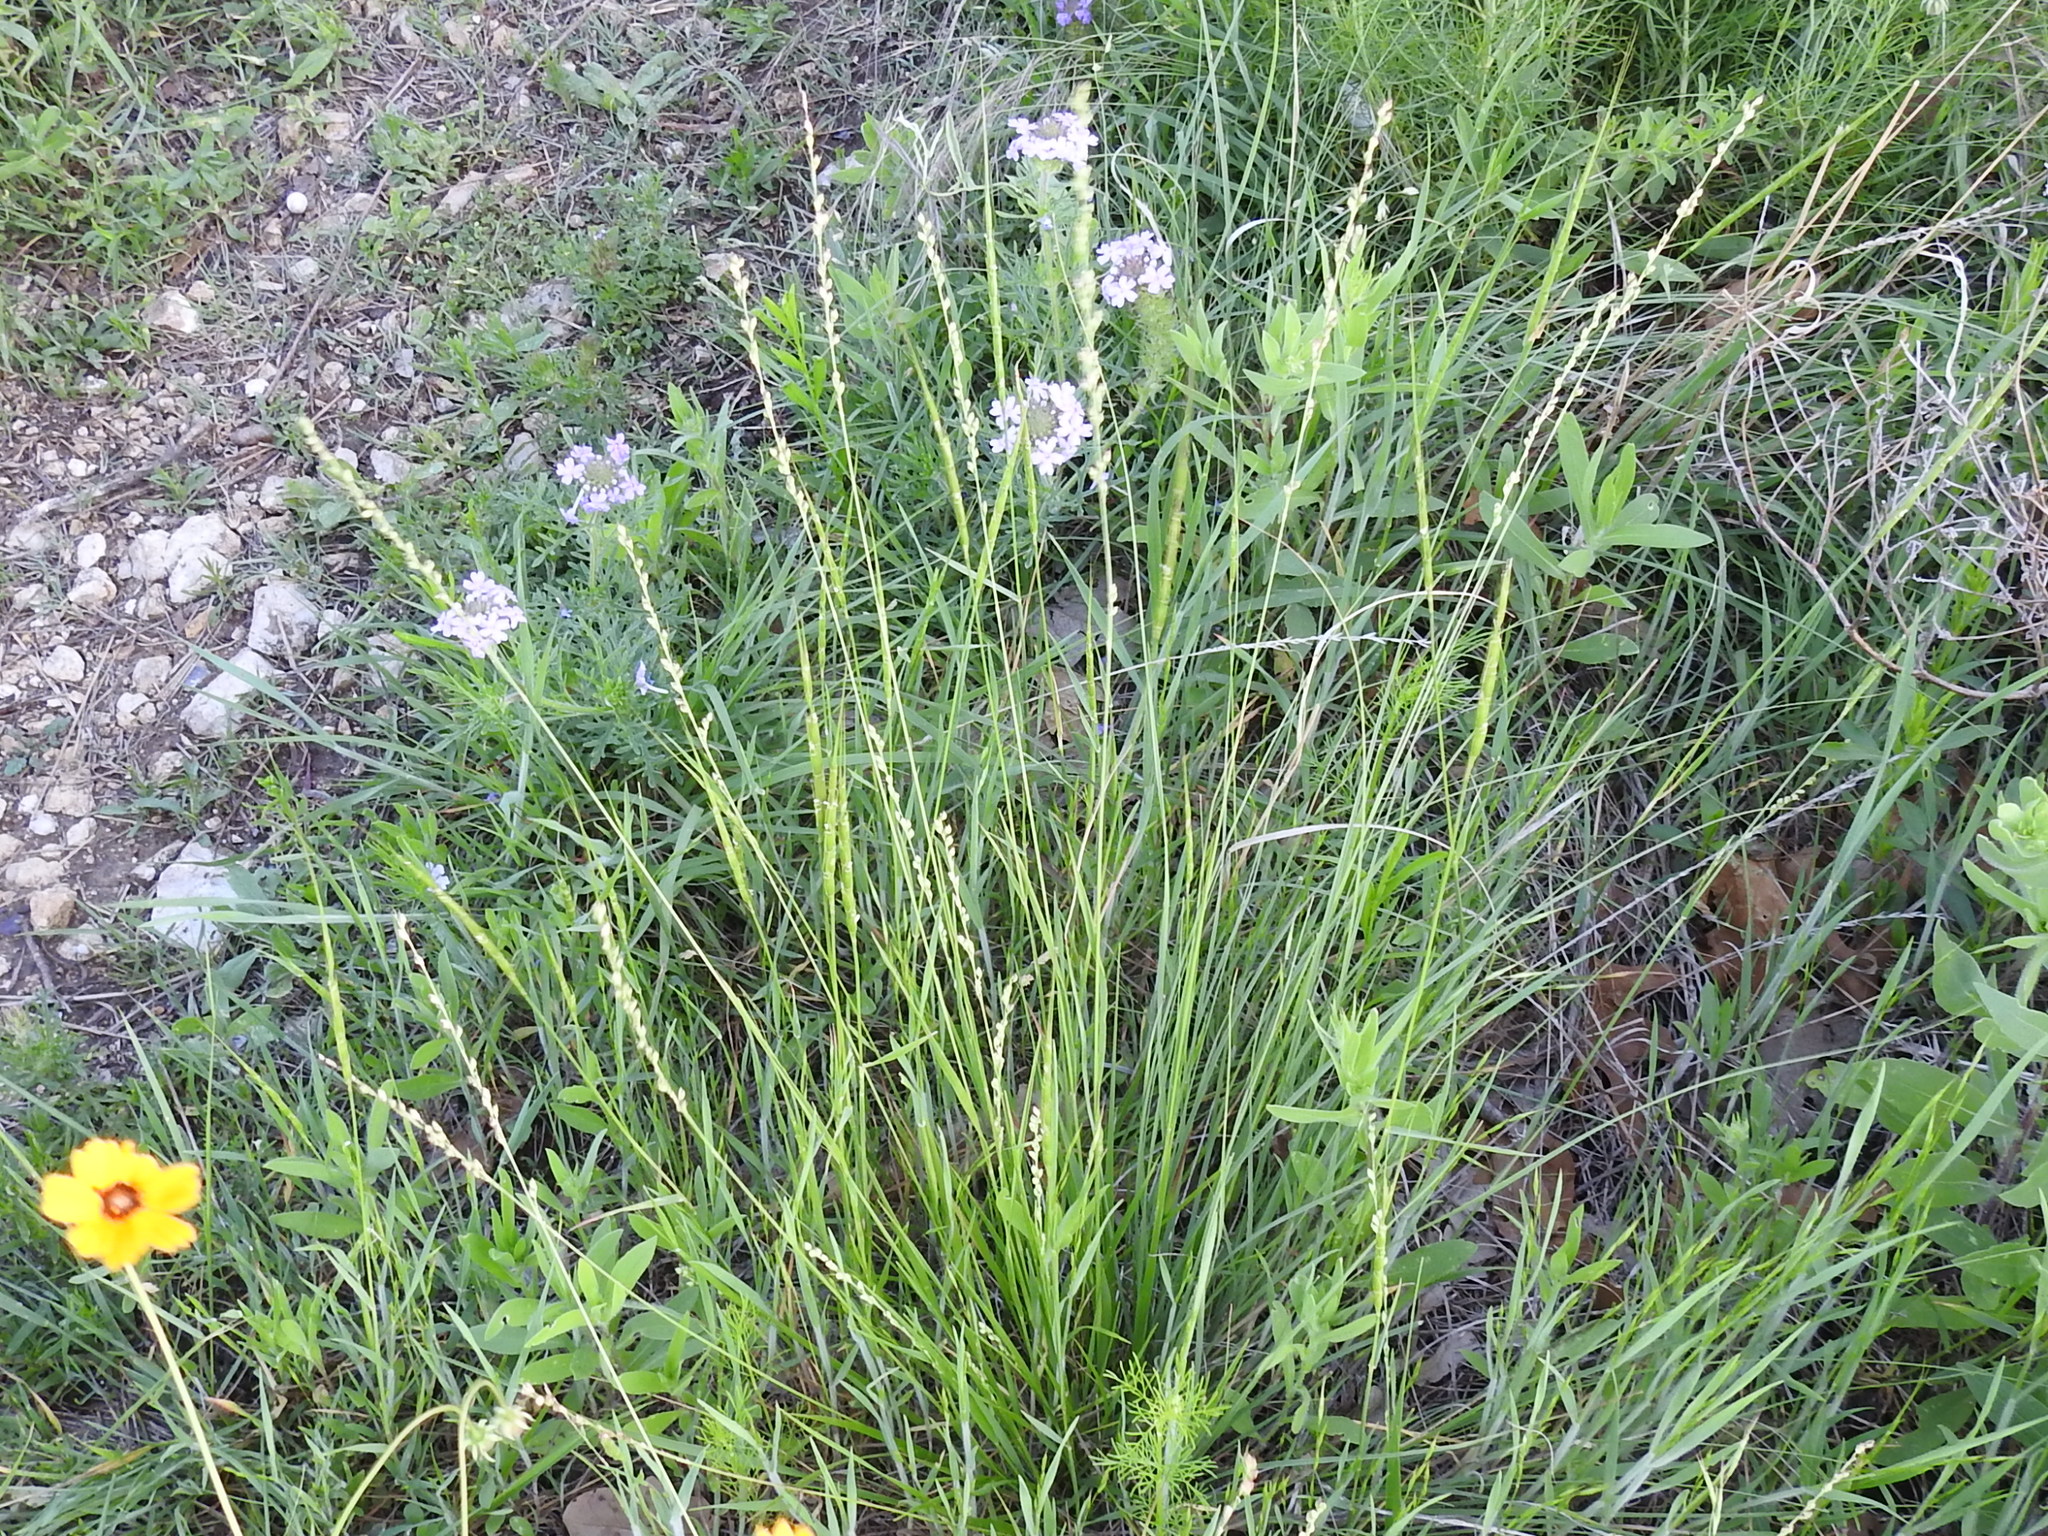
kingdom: Plantae
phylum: Tracheophyta
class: Liliopsida
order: Poales
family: Poaceae
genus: Setaria
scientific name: Setaria reverchonii
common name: Reverchon's bristle grass
